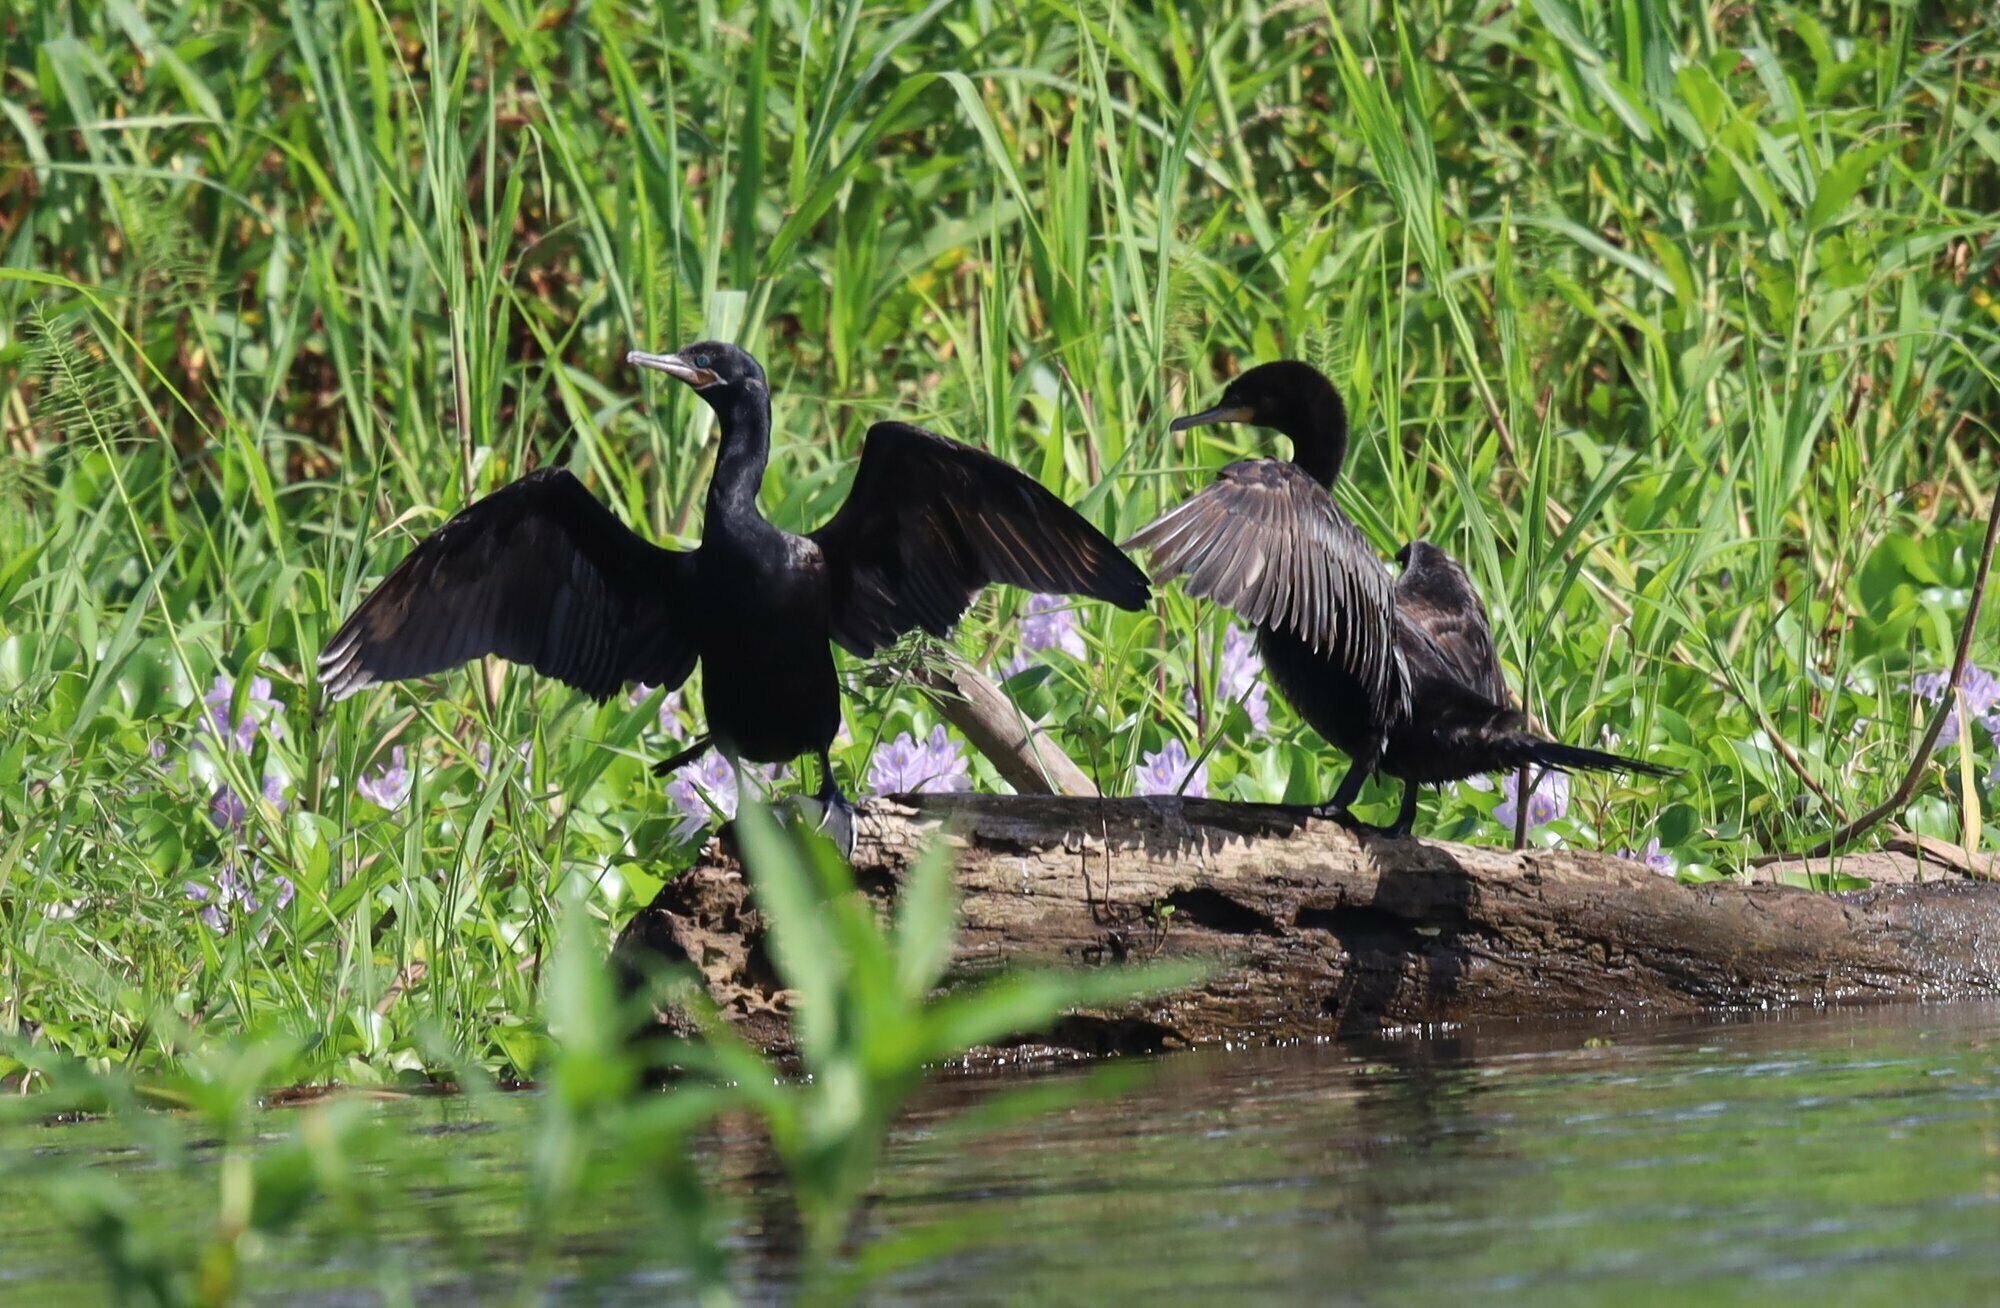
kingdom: Animalia
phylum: Chordata
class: Aves
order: Suliformes
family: Phalacrocoracidae
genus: Phalacrocorax
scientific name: Phalacrocorax brasilianus
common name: Neotropic cormorant
